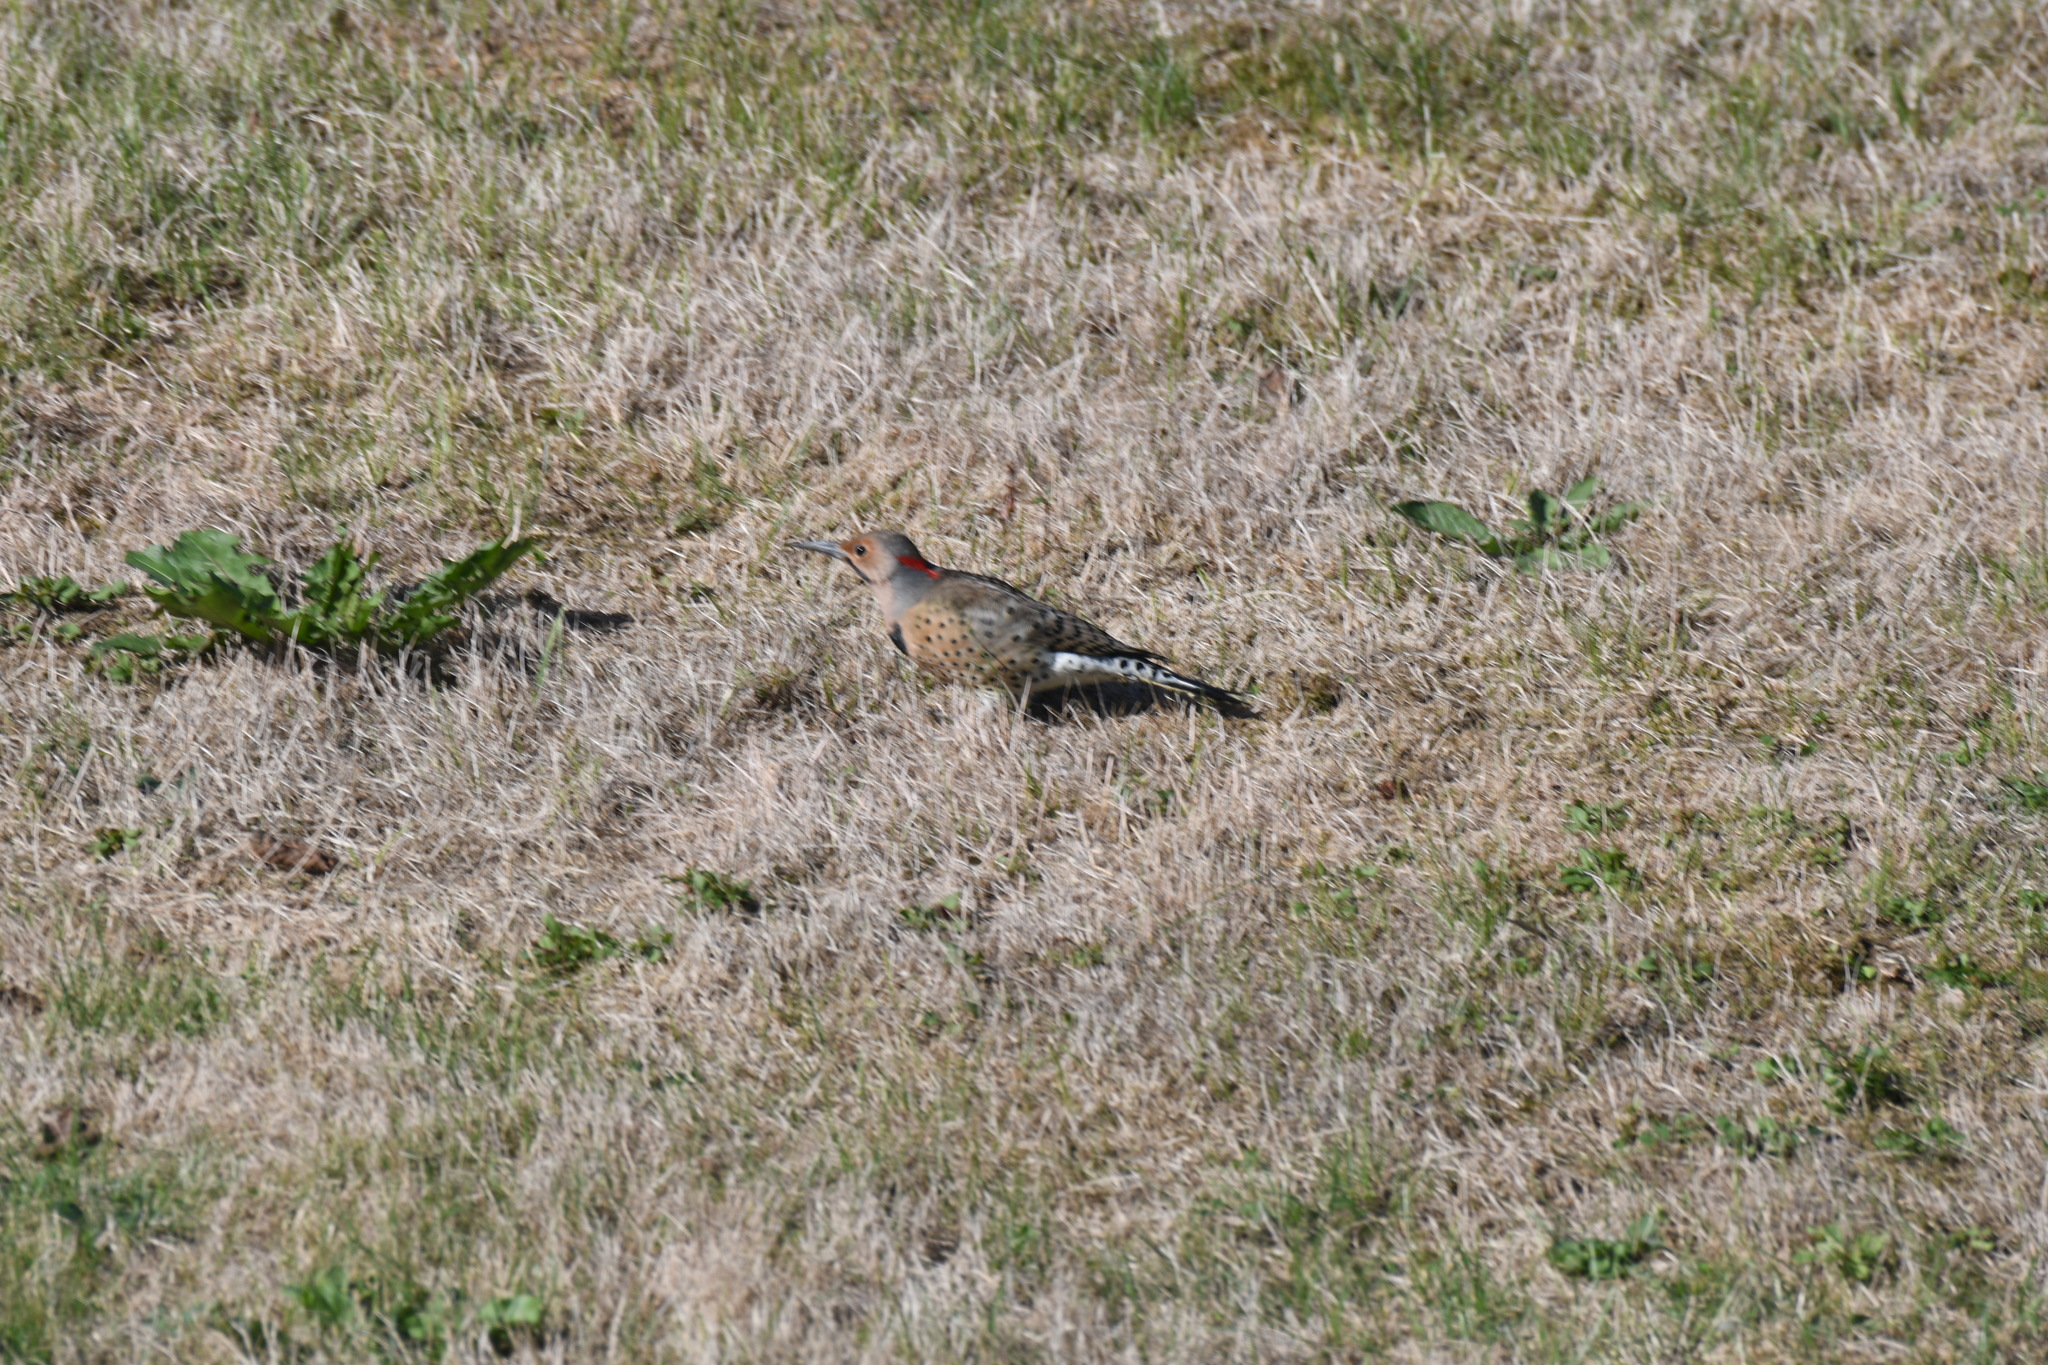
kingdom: Animalia
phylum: Chordata
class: Aves
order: Piciformes
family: Picidae
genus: Colaptes
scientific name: Colaptes auratus
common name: Northern flicker
